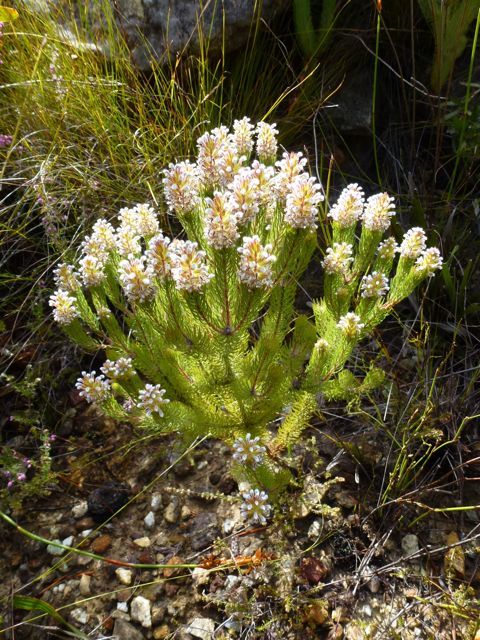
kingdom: Plantae
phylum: Tracheophyta
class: Magnoliopsida
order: Proteales
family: Proteaceae
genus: Spatalla
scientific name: Spatalla parilis
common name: Spike spoon
